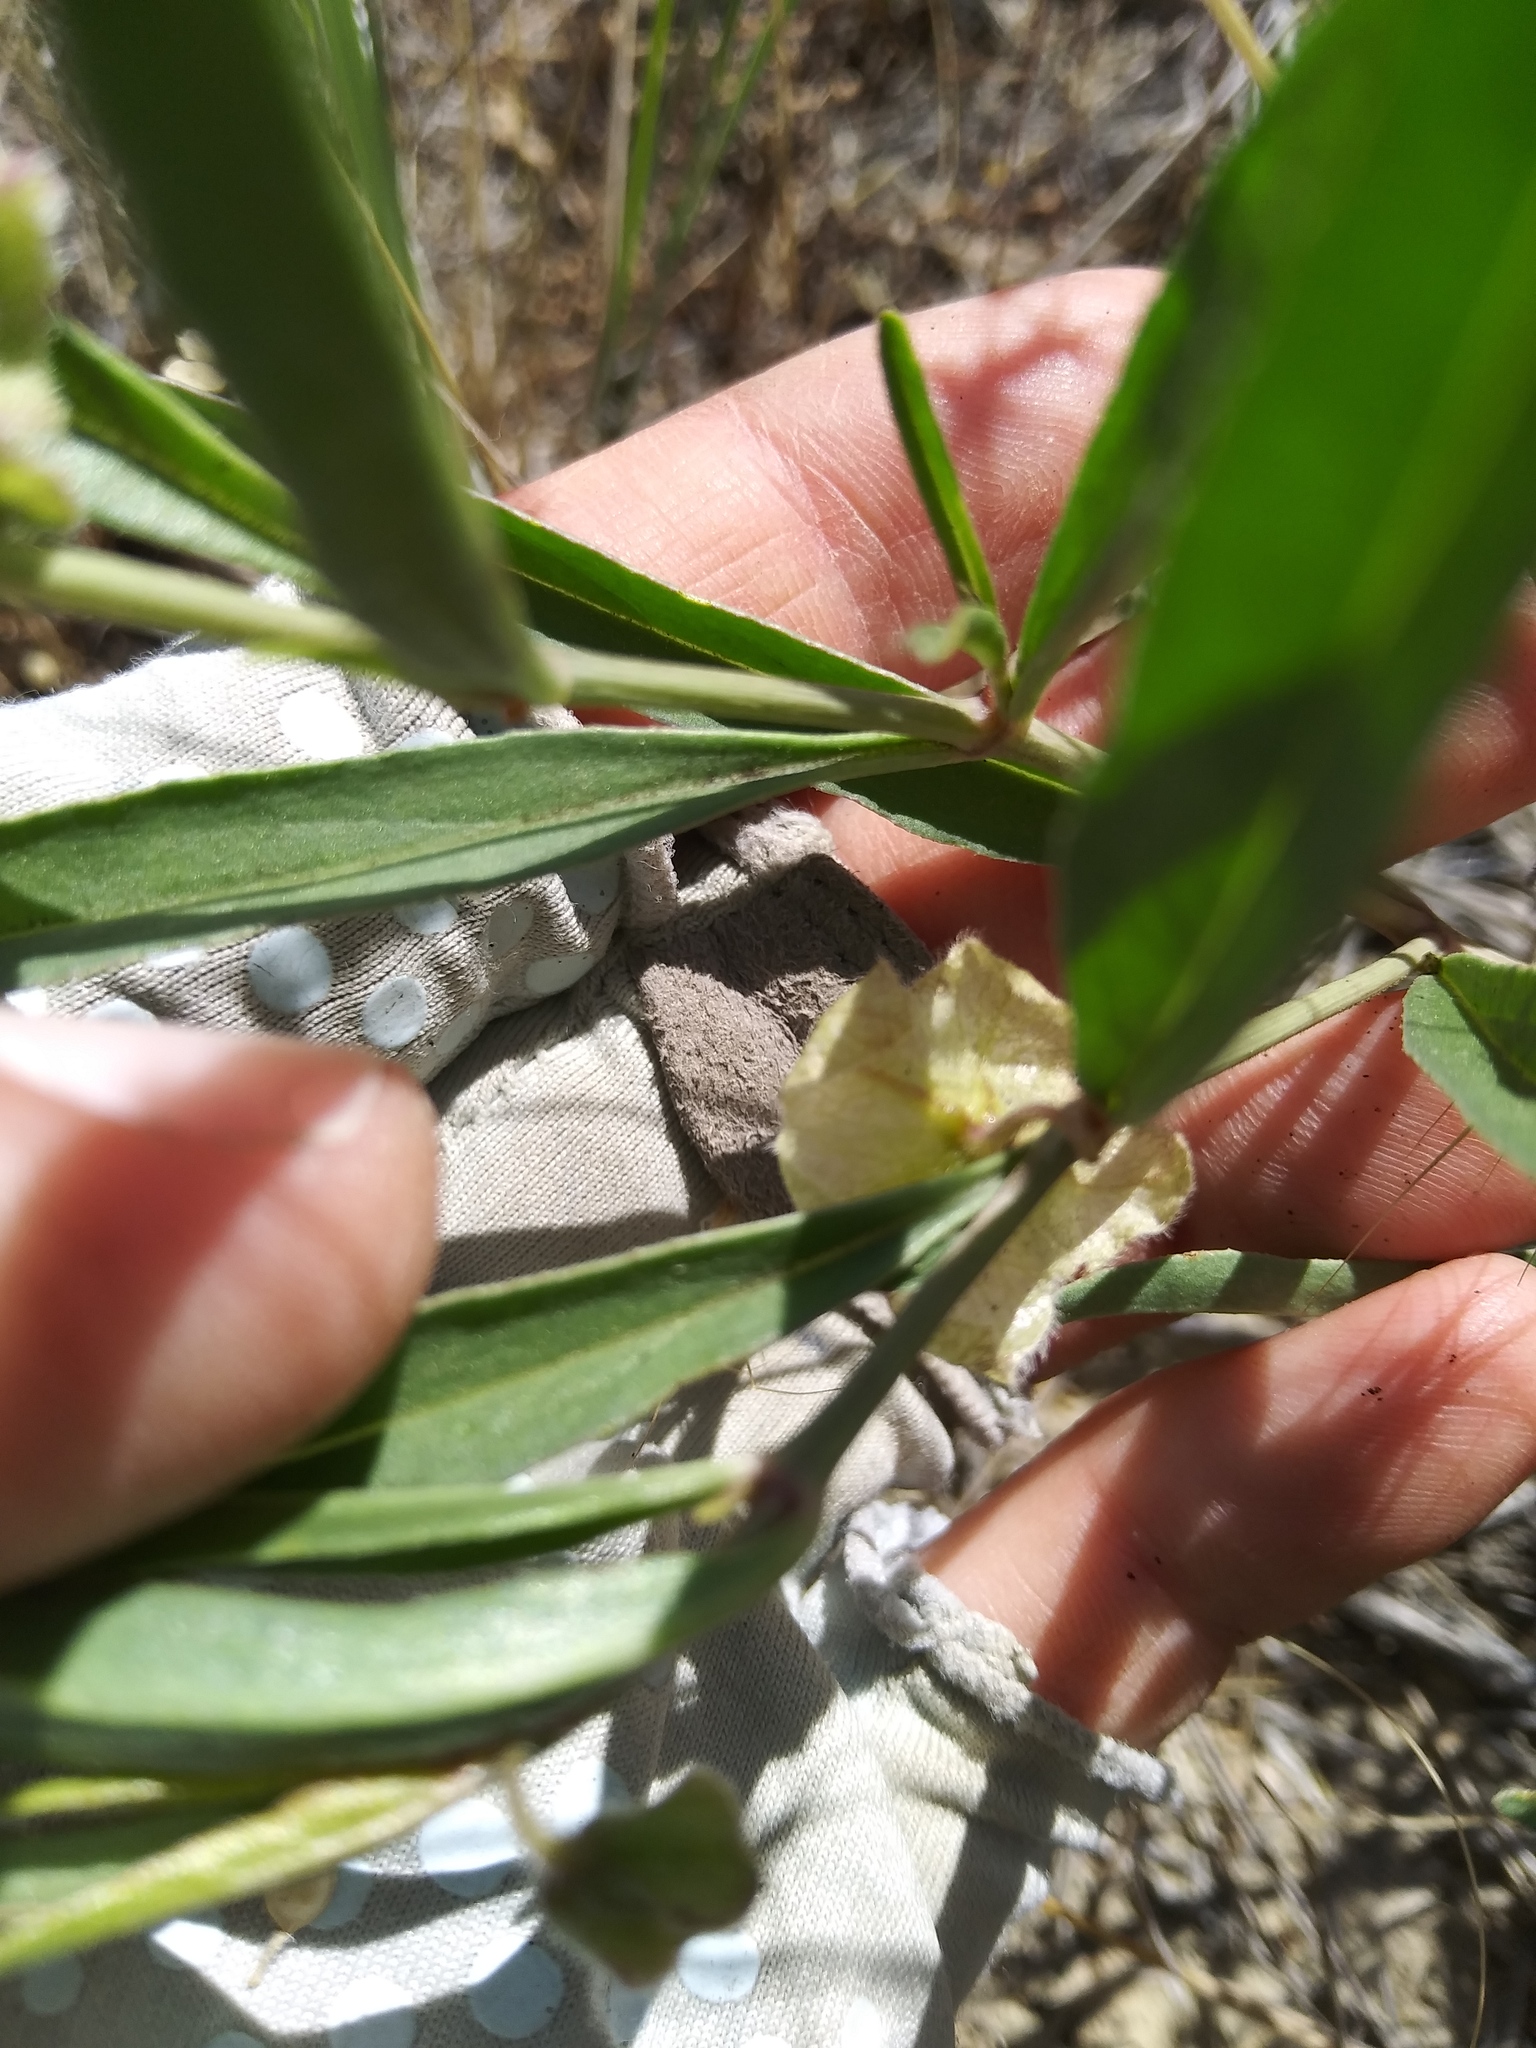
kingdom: Plantae
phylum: Tracheophyta
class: Magnoliopsida
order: Caryophyllales
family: Nyctaginaceae
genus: Mirabilis
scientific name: Mirabilis linearis
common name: Linear-leaved four-o'clock
